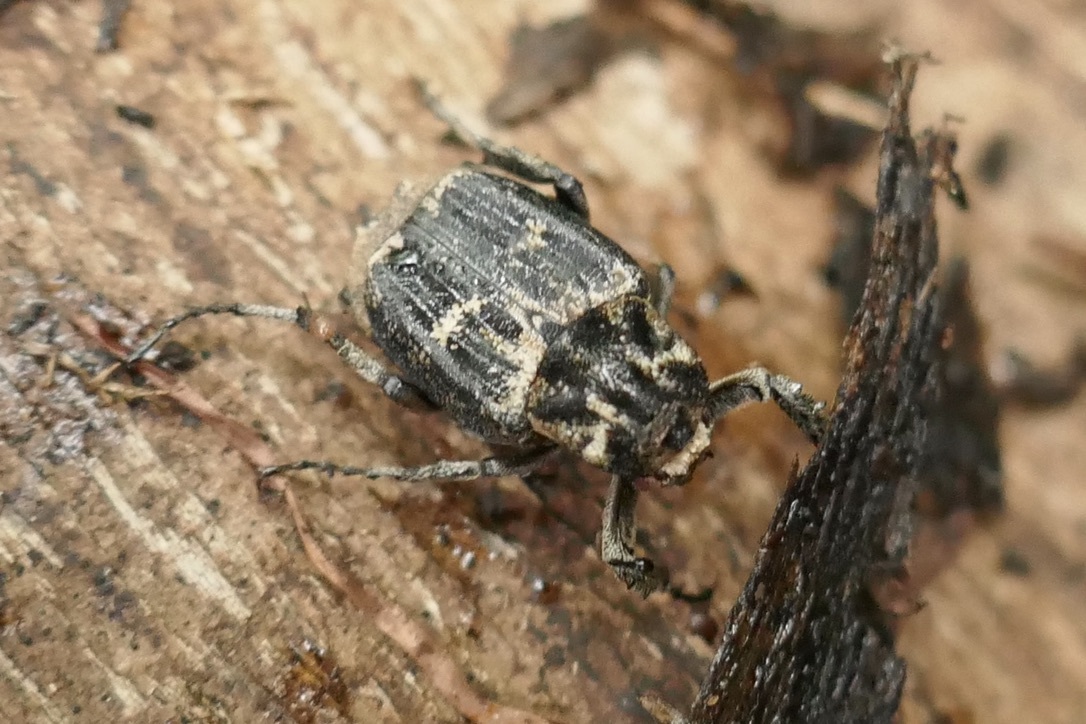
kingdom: Animalia
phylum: Arthropoda
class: Insecta
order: Coleoptera
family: Scarabaeidae
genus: Valgus
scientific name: Valgus hemipterus
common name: Bug flower chafer
